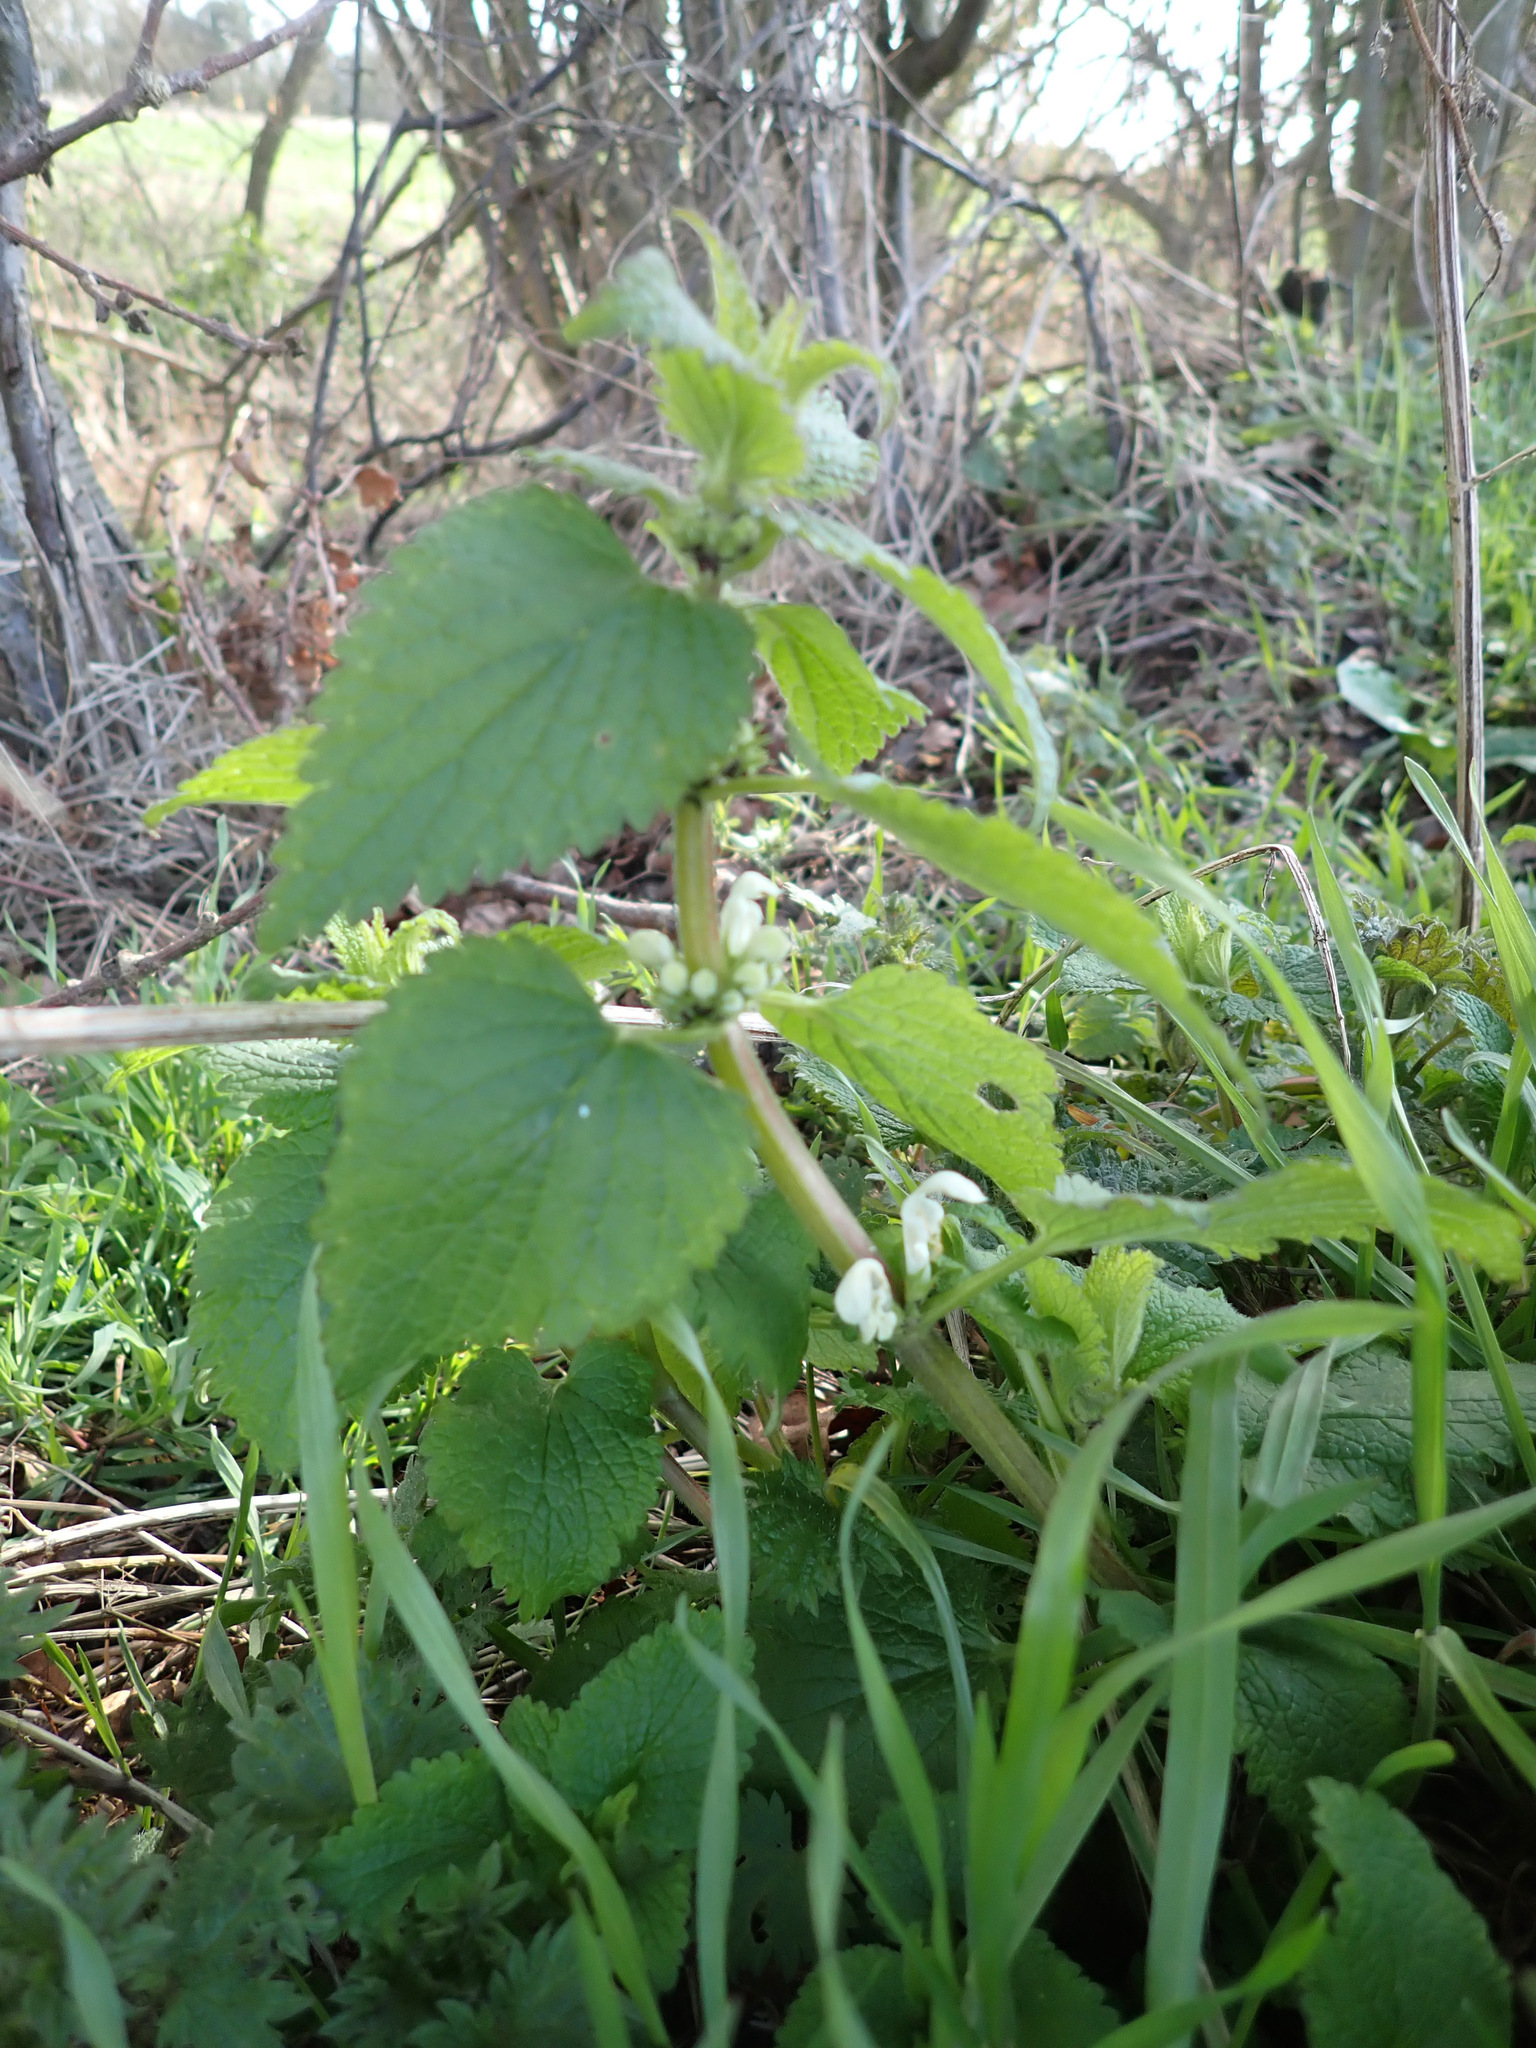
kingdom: Plantae
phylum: Tracheophyta
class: Magnoliopsida
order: Lamiales
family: Lamiaceae
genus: Lamium
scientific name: Lamium album
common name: White dead-nettle
